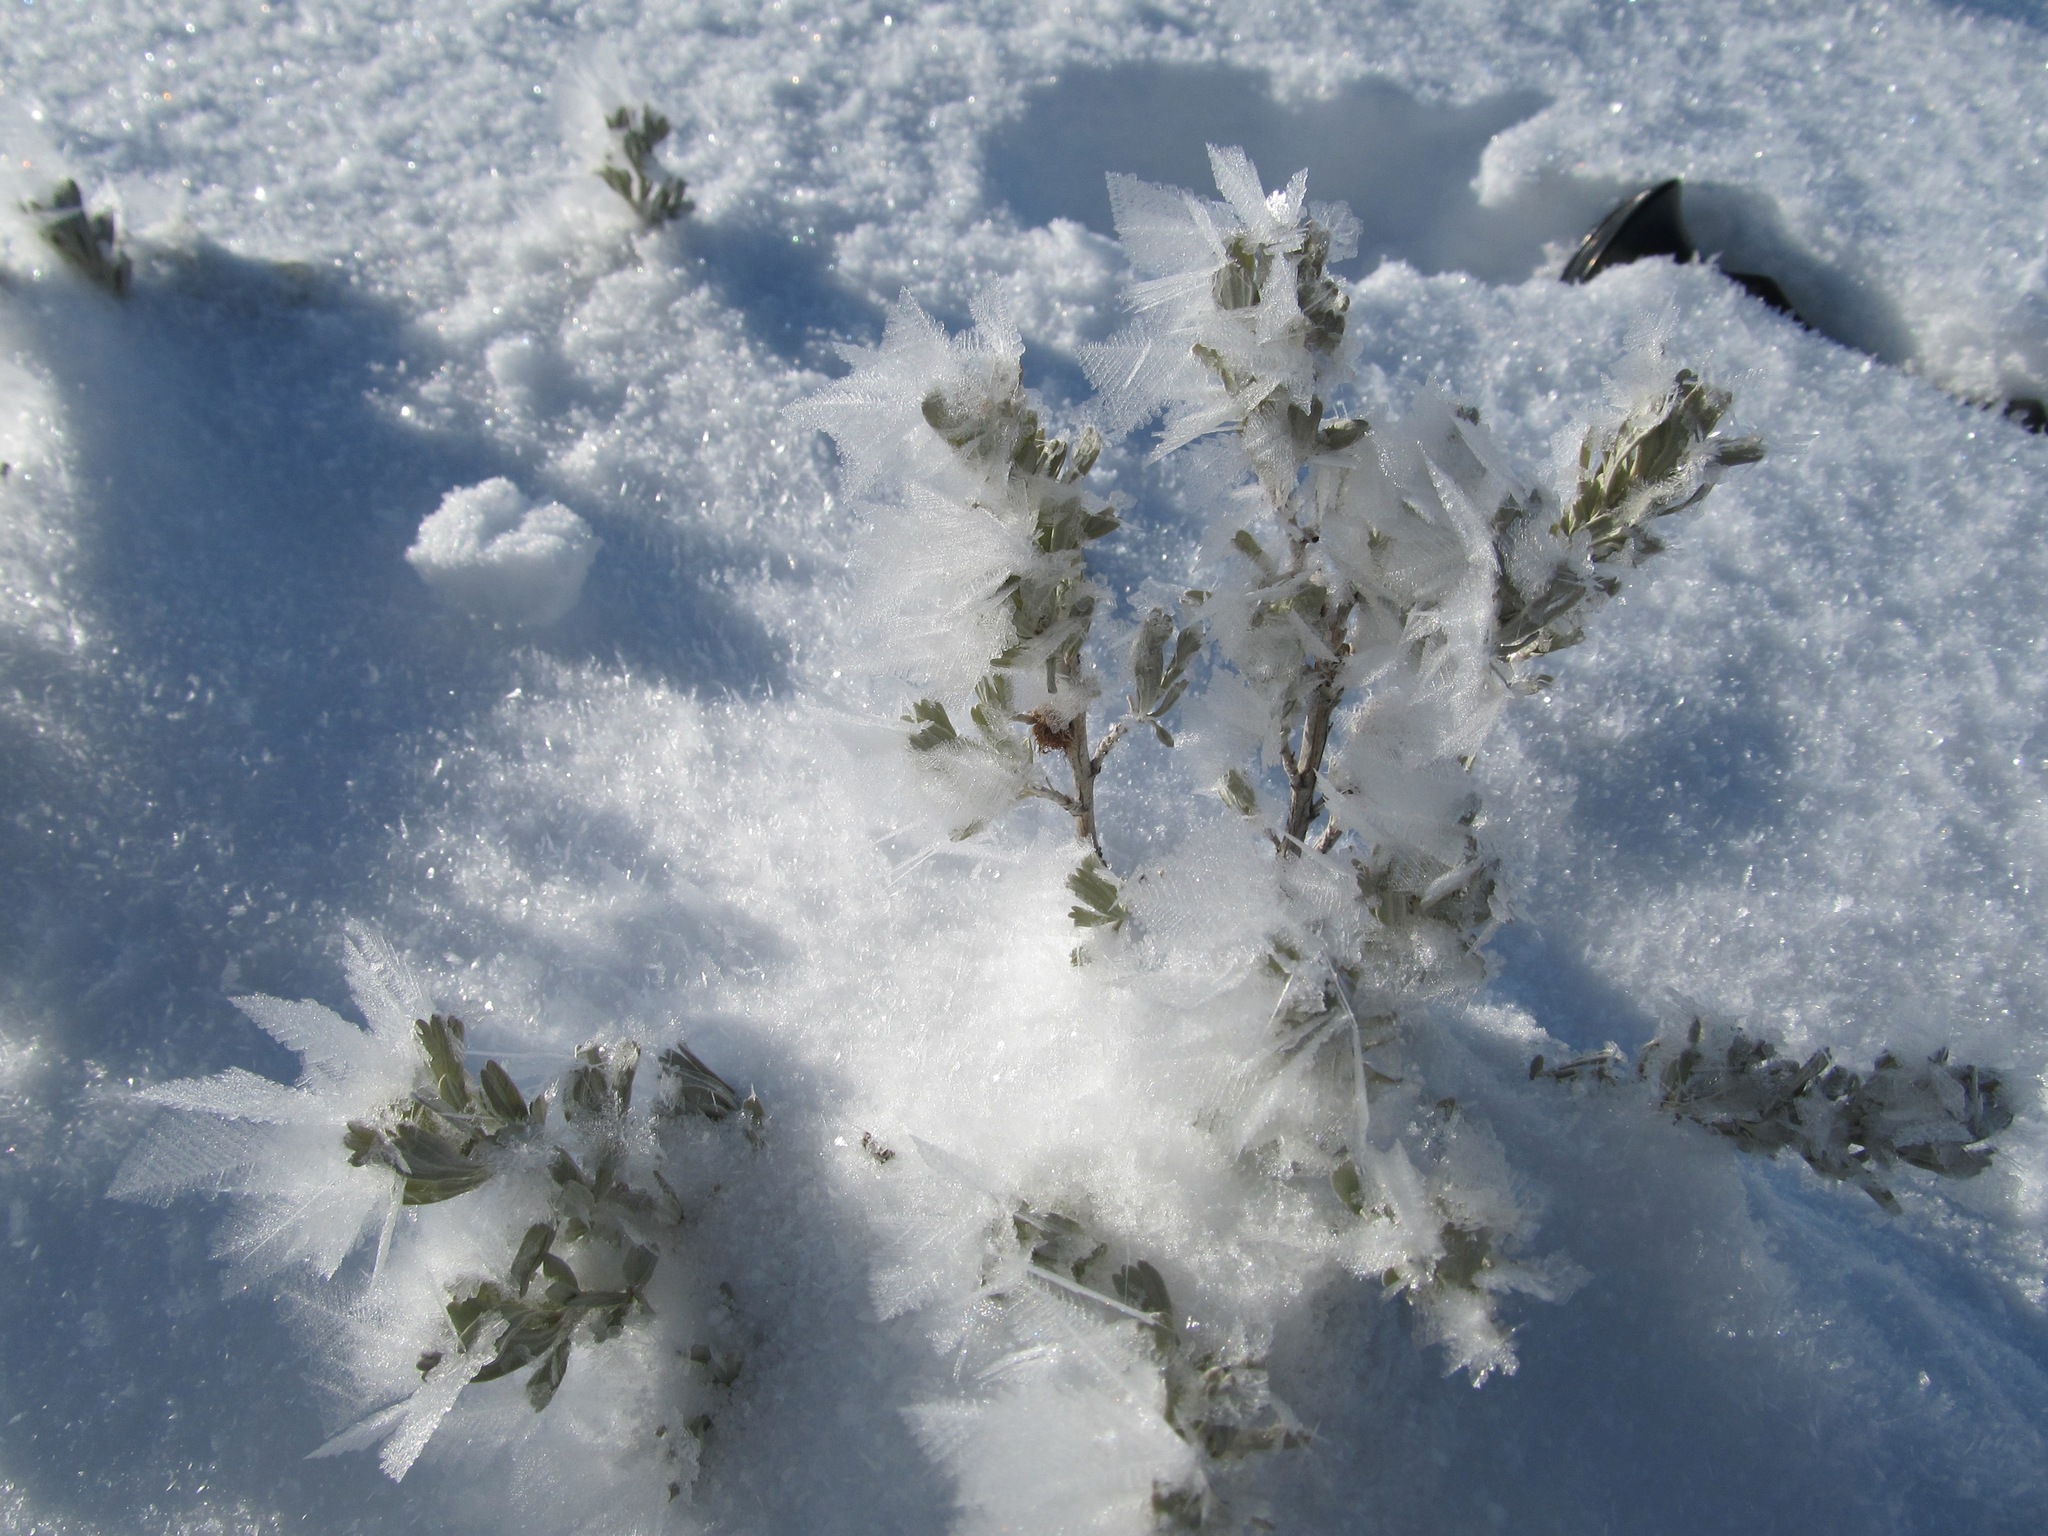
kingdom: Plantae
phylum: Tracheophyta
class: Magnoliopsida
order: Asterales
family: Asteraceae
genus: Artemisia
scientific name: Artemisia tridentata
